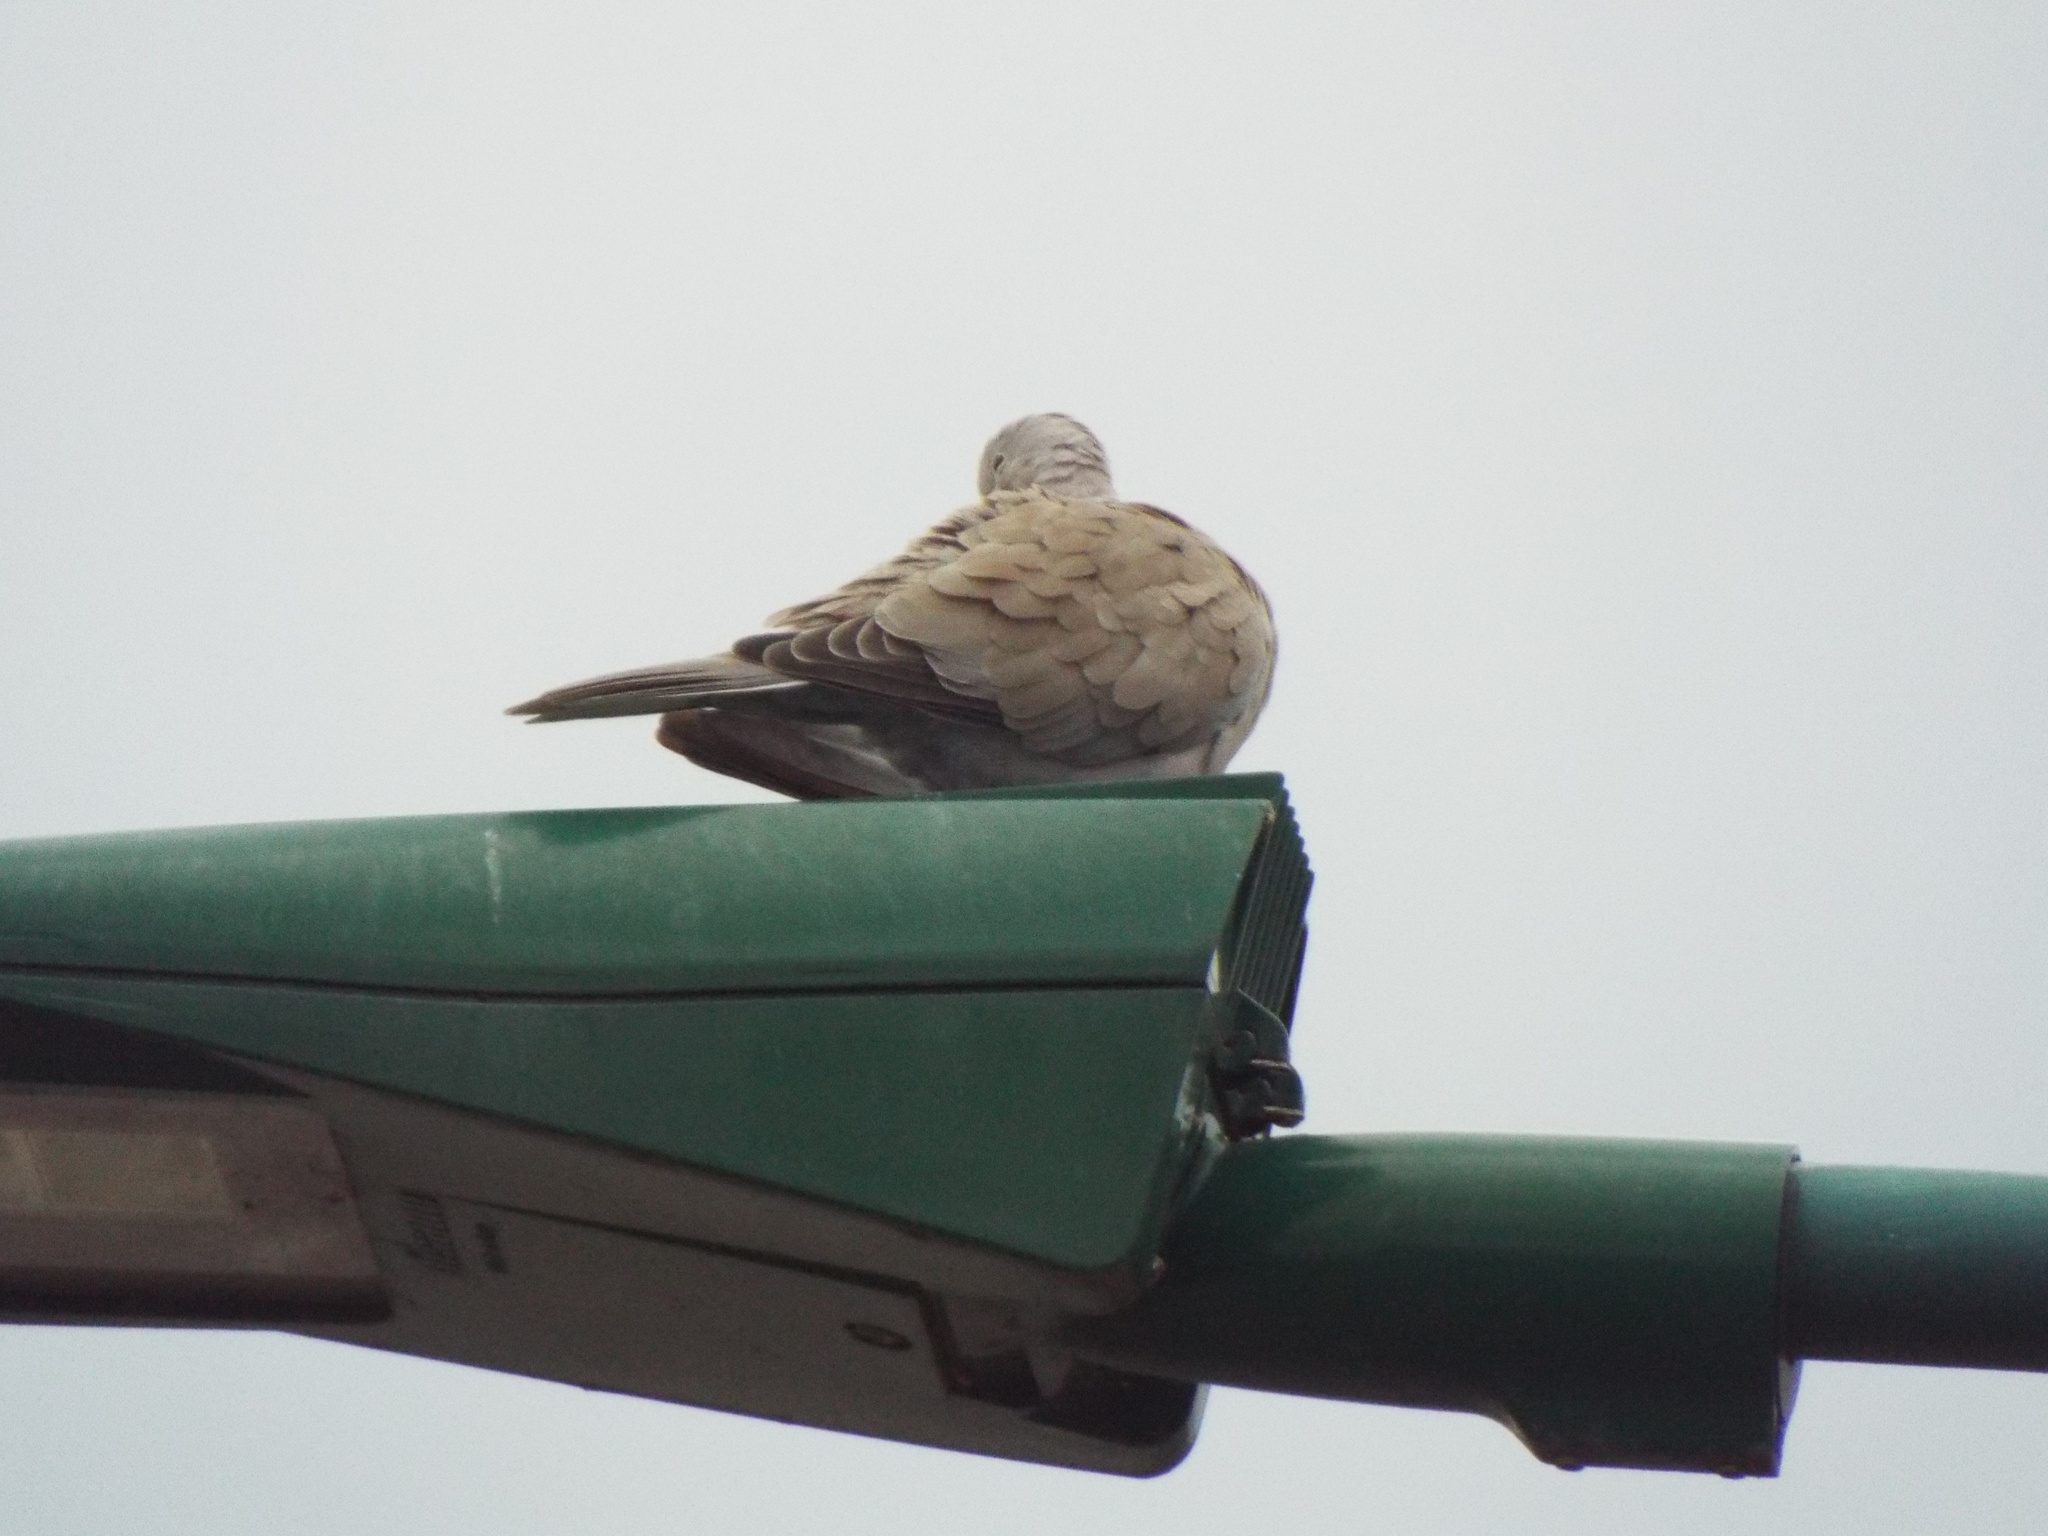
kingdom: Animalia
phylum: Chordata
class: Aves
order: Columbiformes
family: Columbidae
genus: Streptopelia
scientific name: Streptopelia decaocto
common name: Eurasian collared dove
